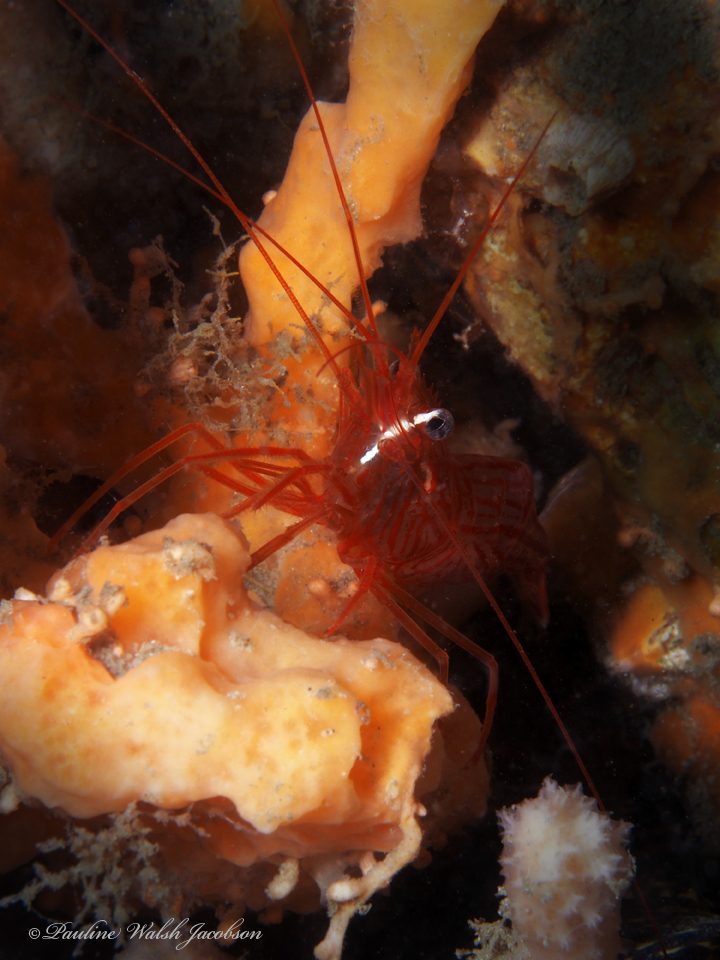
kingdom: Animalia
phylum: Arthropoda
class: Malacostraca
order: Decapoda
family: Lysmatidae
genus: Lysmata
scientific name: Lysmata rafa
